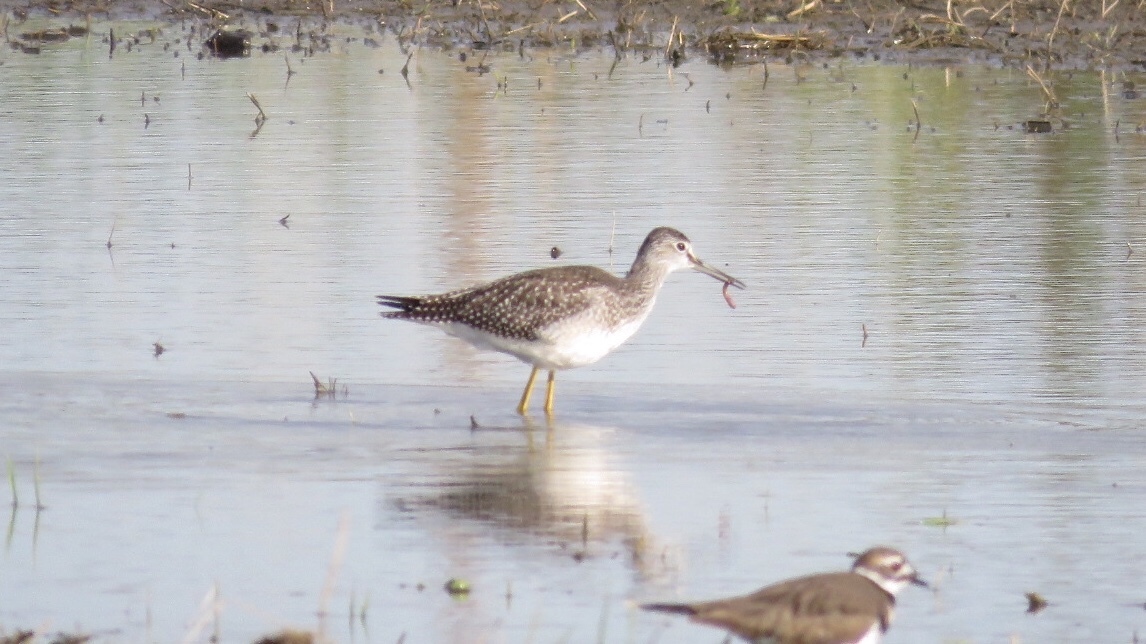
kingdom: Animalia
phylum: Chordata
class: Aves
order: Charadriiformes
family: Scolopacidae
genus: Tringa
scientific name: Tringa melanoleuca
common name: Greater yellowlegs
